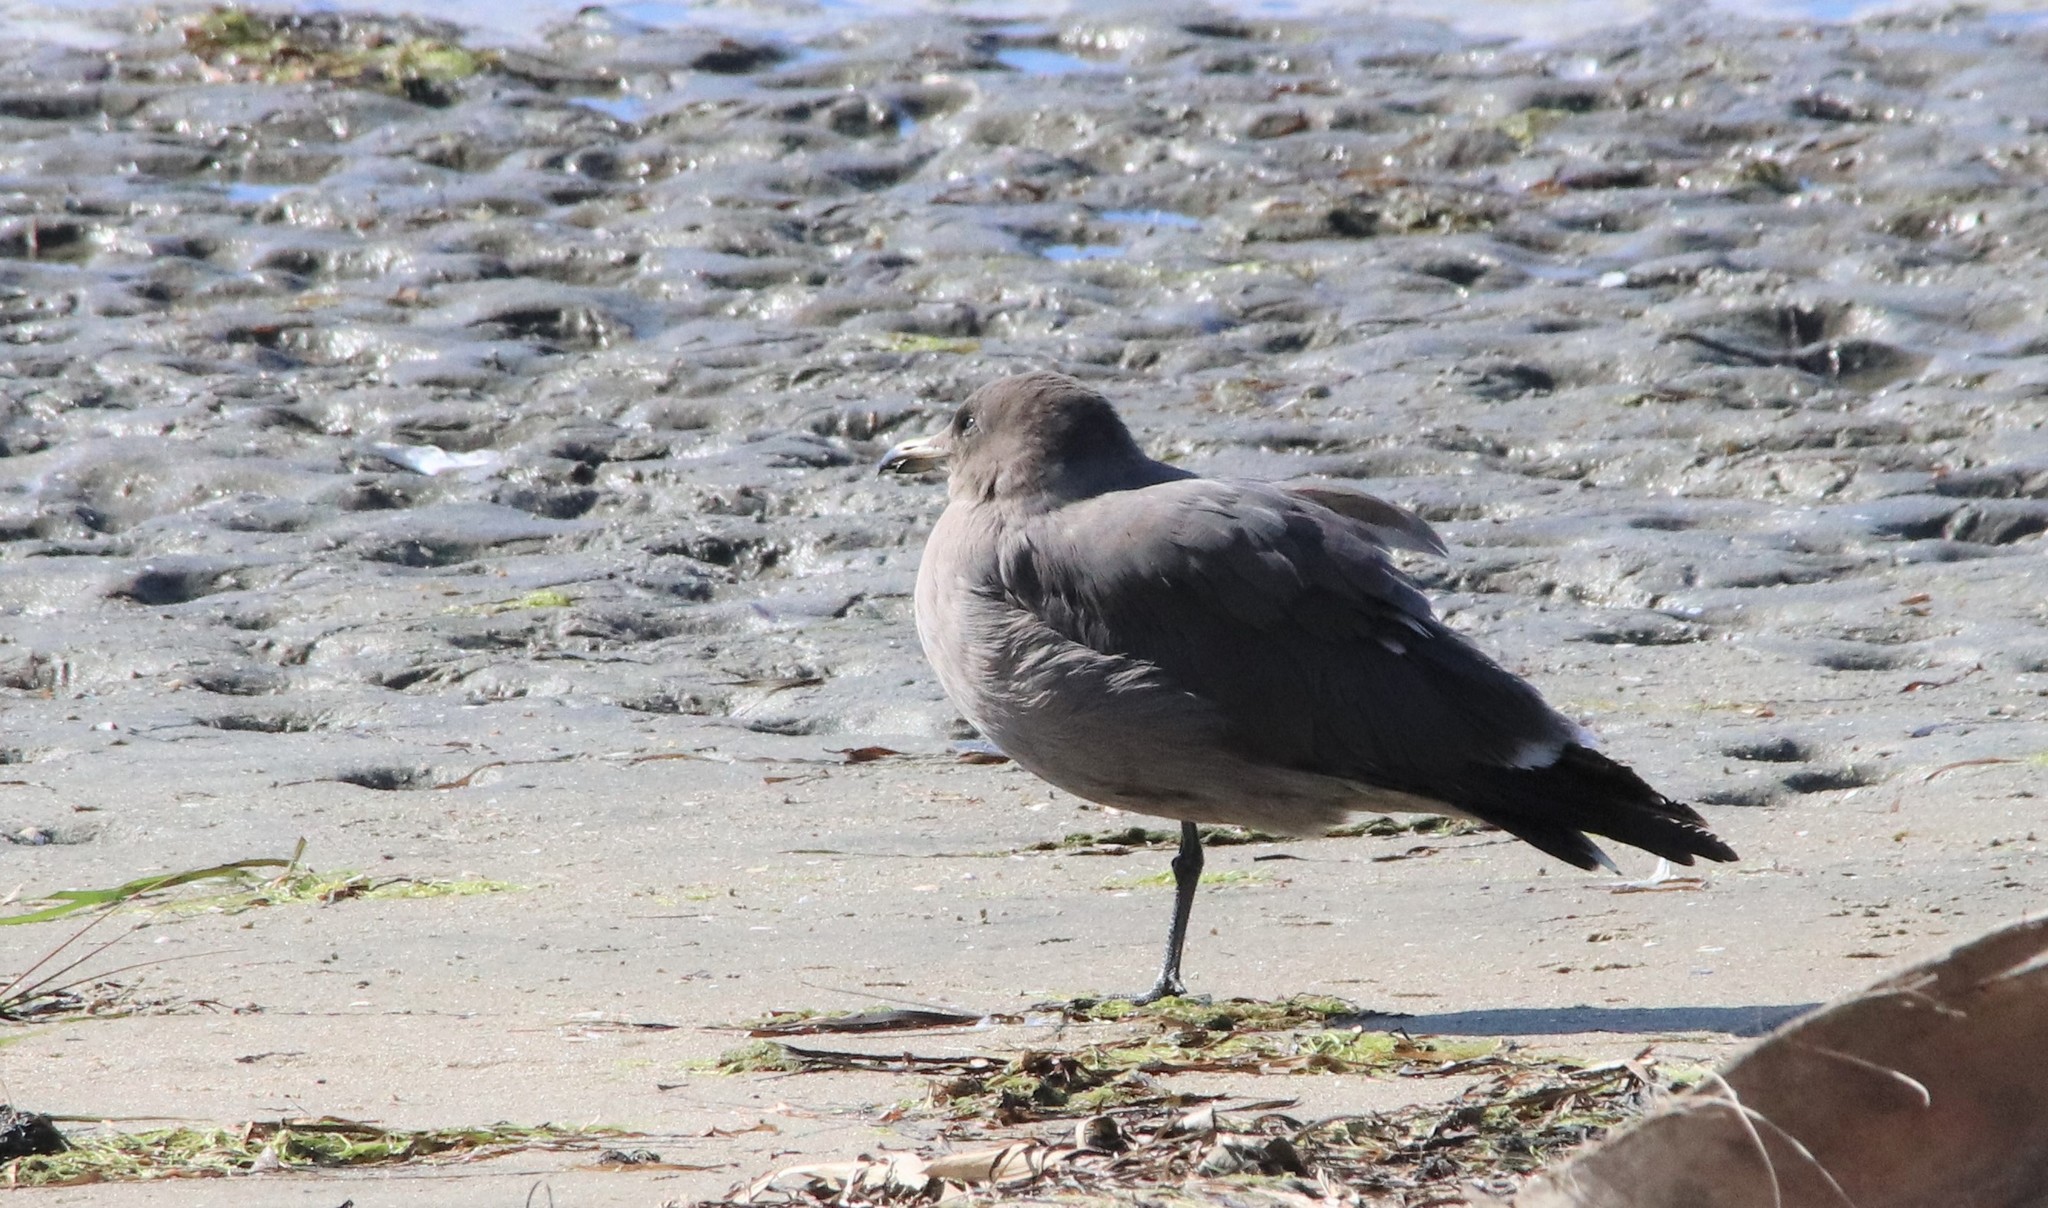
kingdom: Animalia
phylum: Chordata
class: Aves
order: Charadriiformes
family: Laridae
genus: Larus
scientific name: Larus heermanni
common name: Heermann's gull
